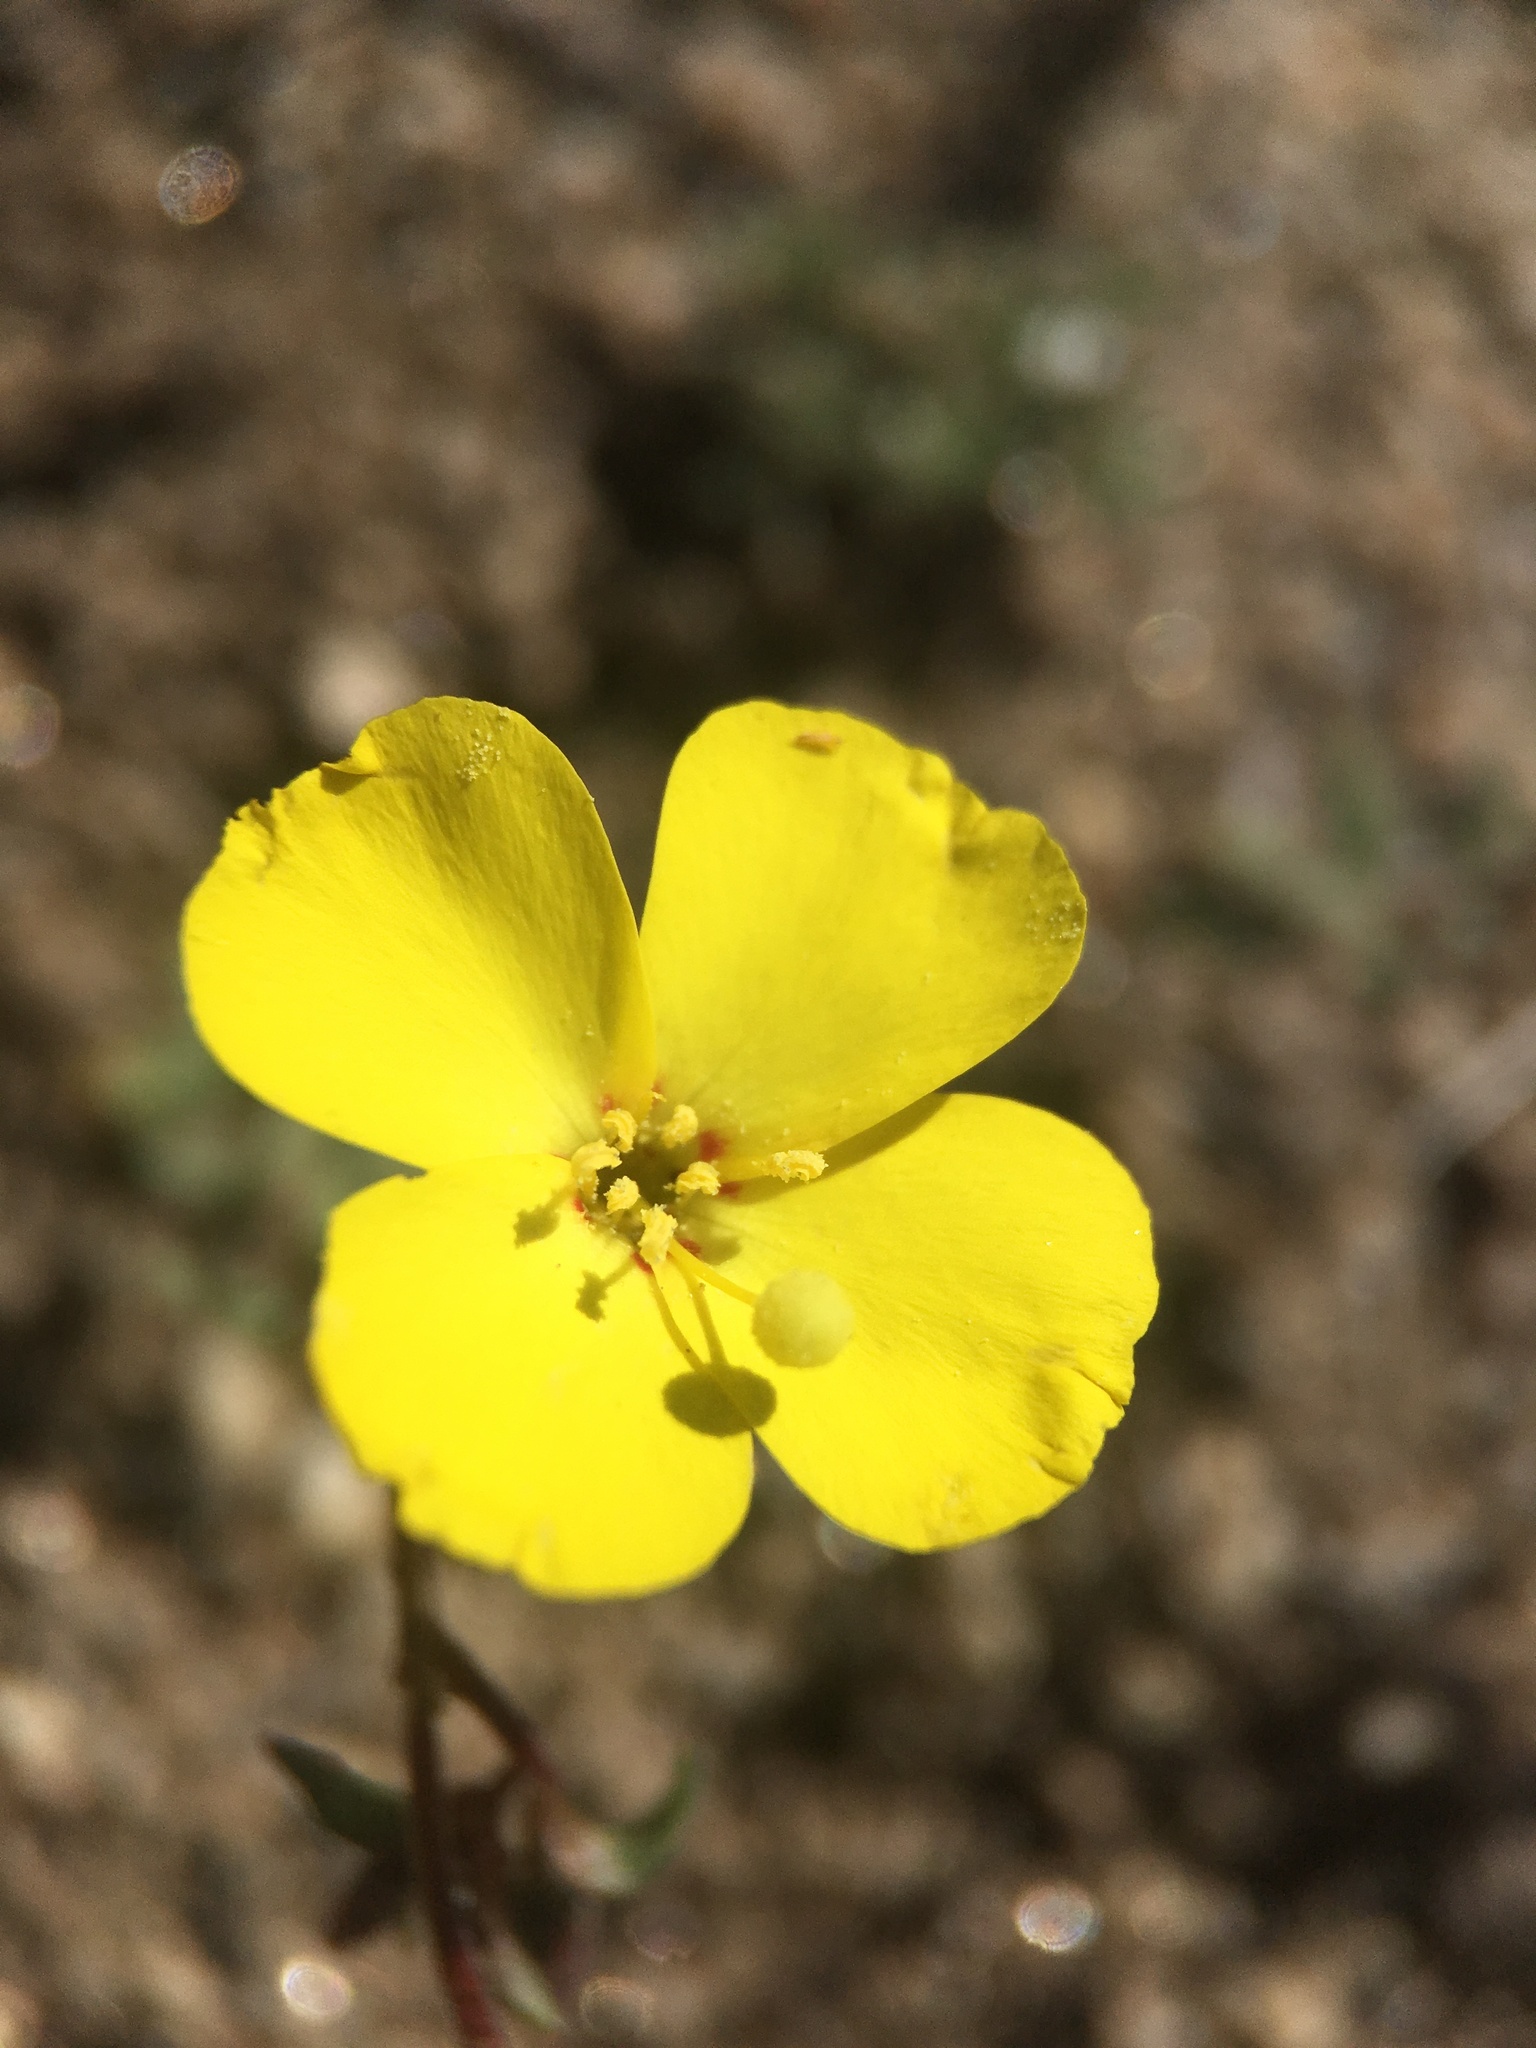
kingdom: Plantae
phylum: Tracheophyta
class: Magnoliopsida
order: Myrtales
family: Onagraceae
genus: Camissonia
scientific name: Camissonia kernensis
